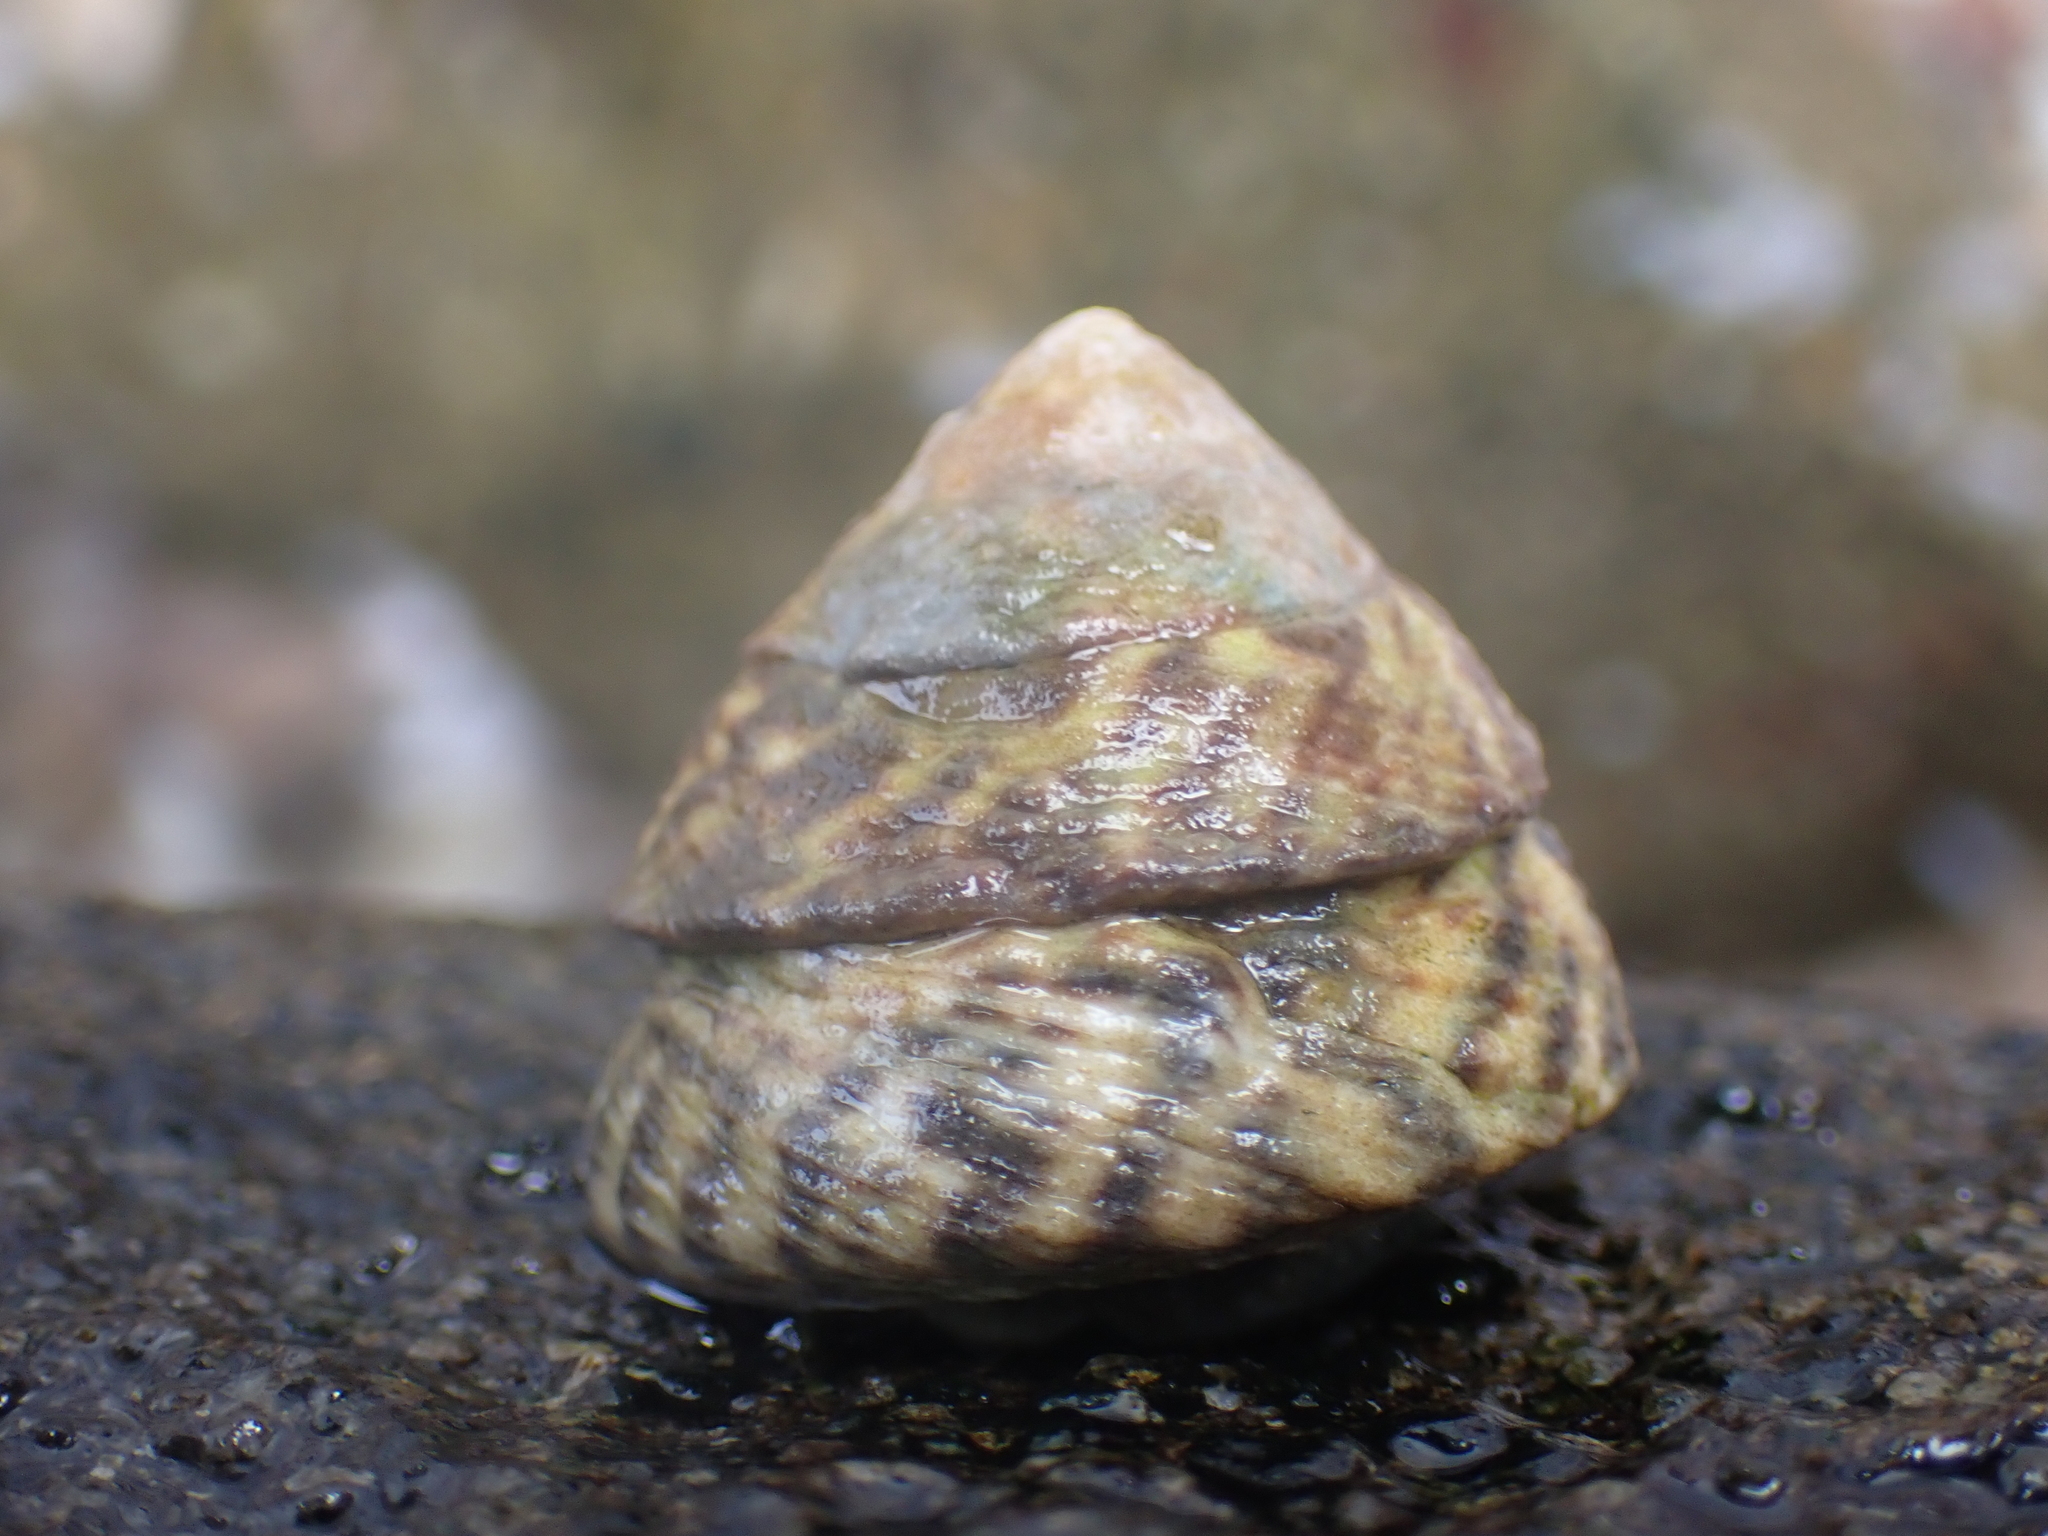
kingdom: Animalia
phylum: Mollusca
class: Gastropoda
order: Littorinimorpha
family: Littorinidae
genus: Bembicium
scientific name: Bembicium nanum
